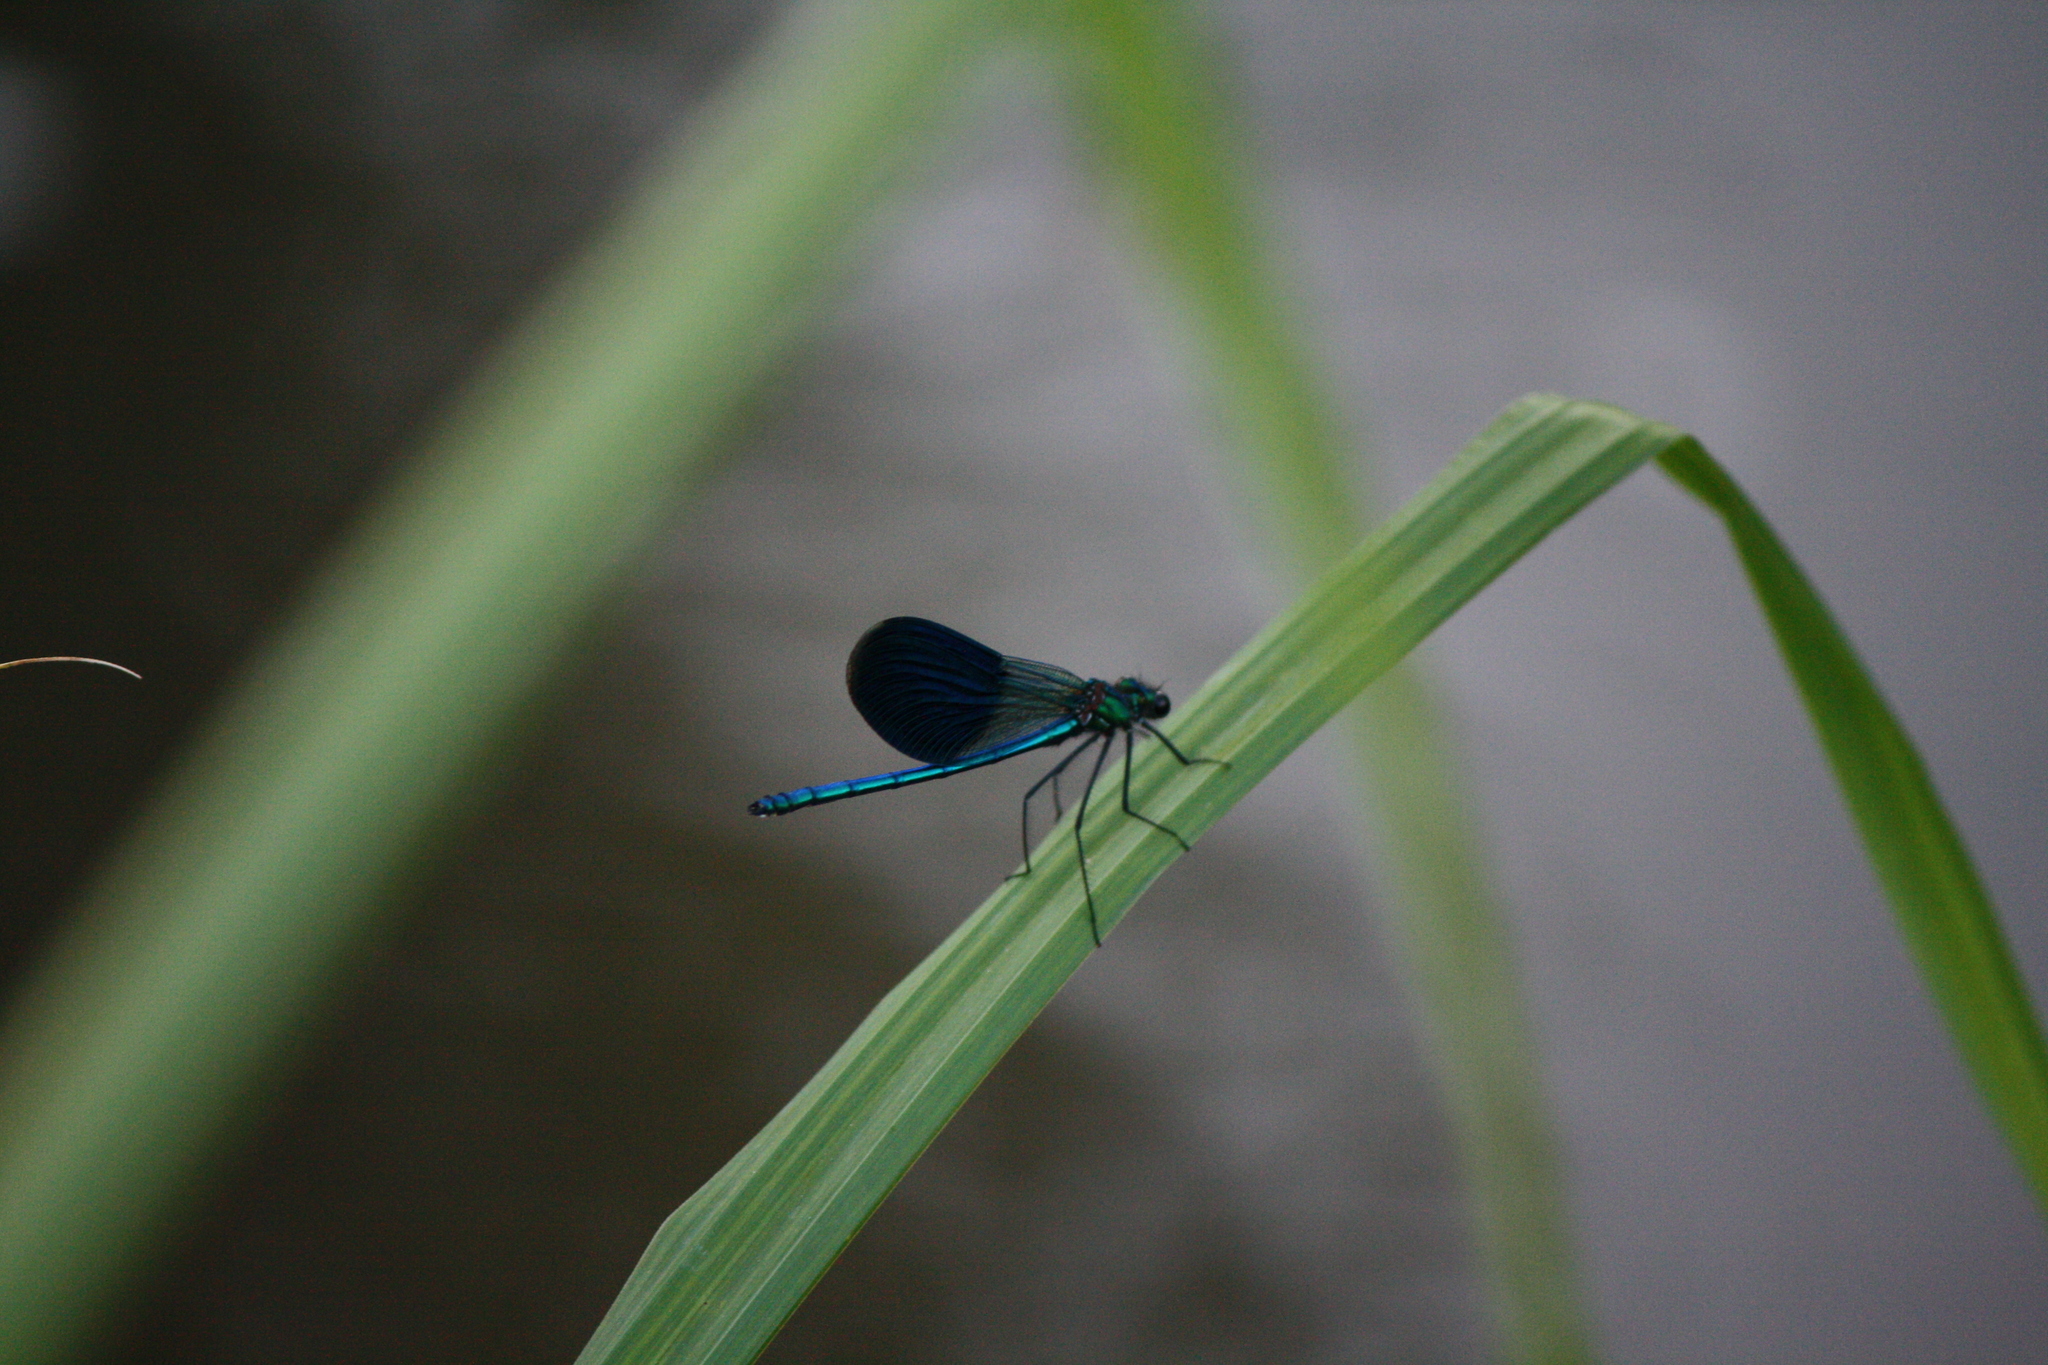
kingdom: Animalia
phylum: Arthropoda
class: Insecta
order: Odonata
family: Calopterygidae
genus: Calopteryx
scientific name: Calopteryx splendens
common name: Banded demoiselle
